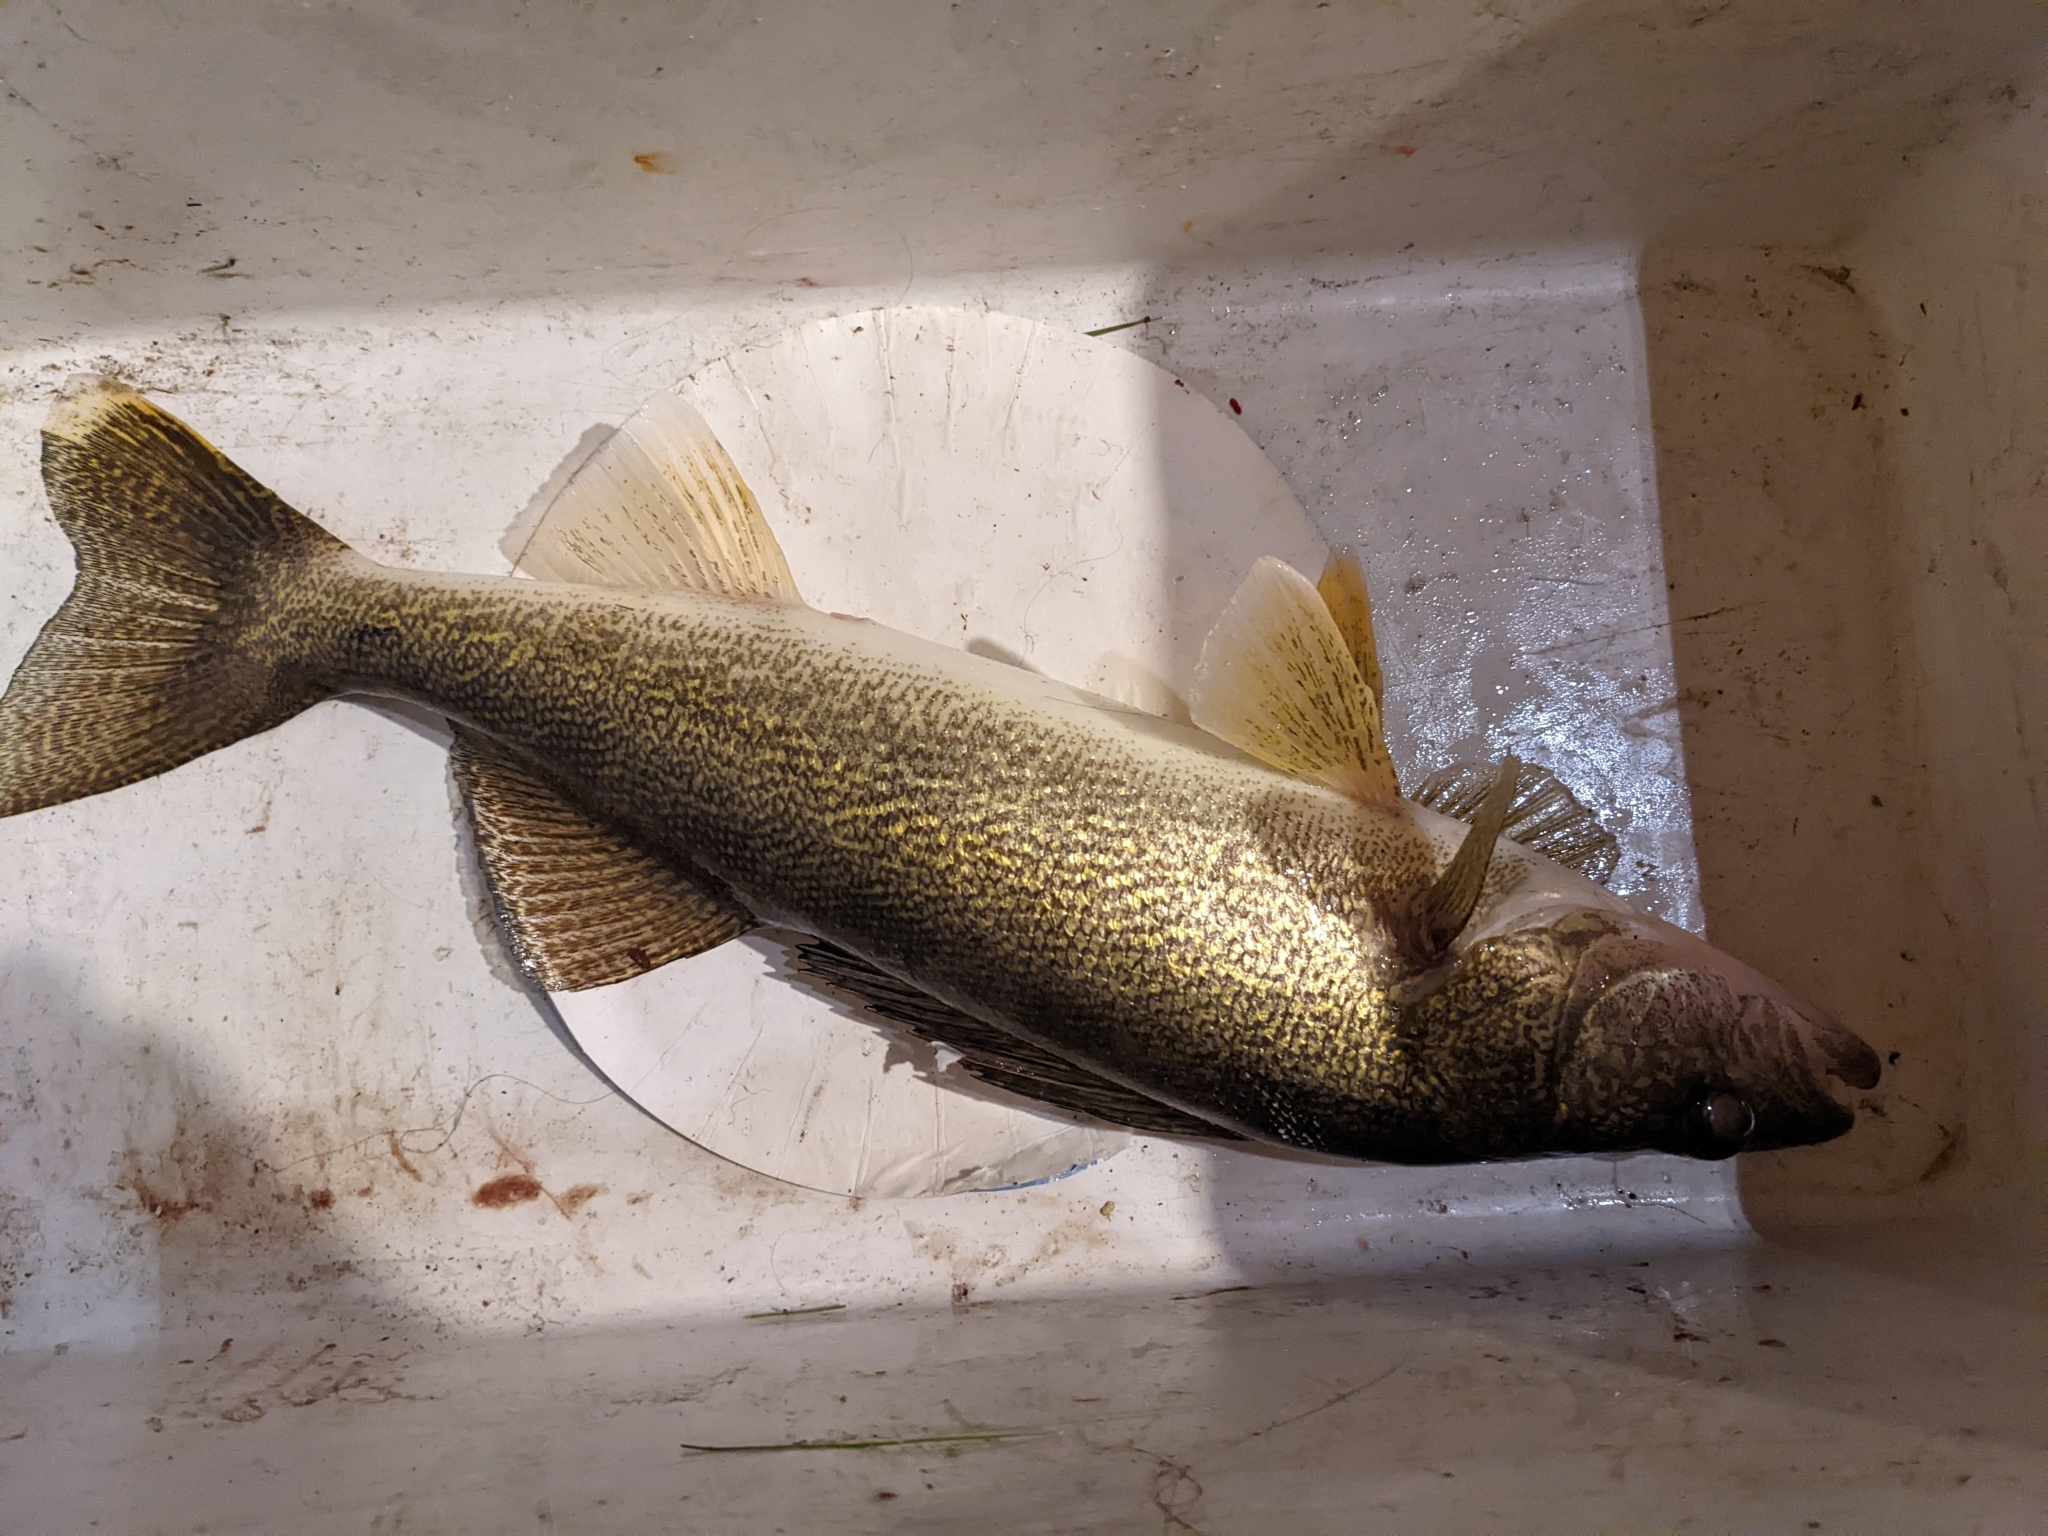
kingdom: Animalia
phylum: Chordata
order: Perciformes
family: Percidae
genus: Sander
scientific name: Sander vitreus
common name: Walleye
